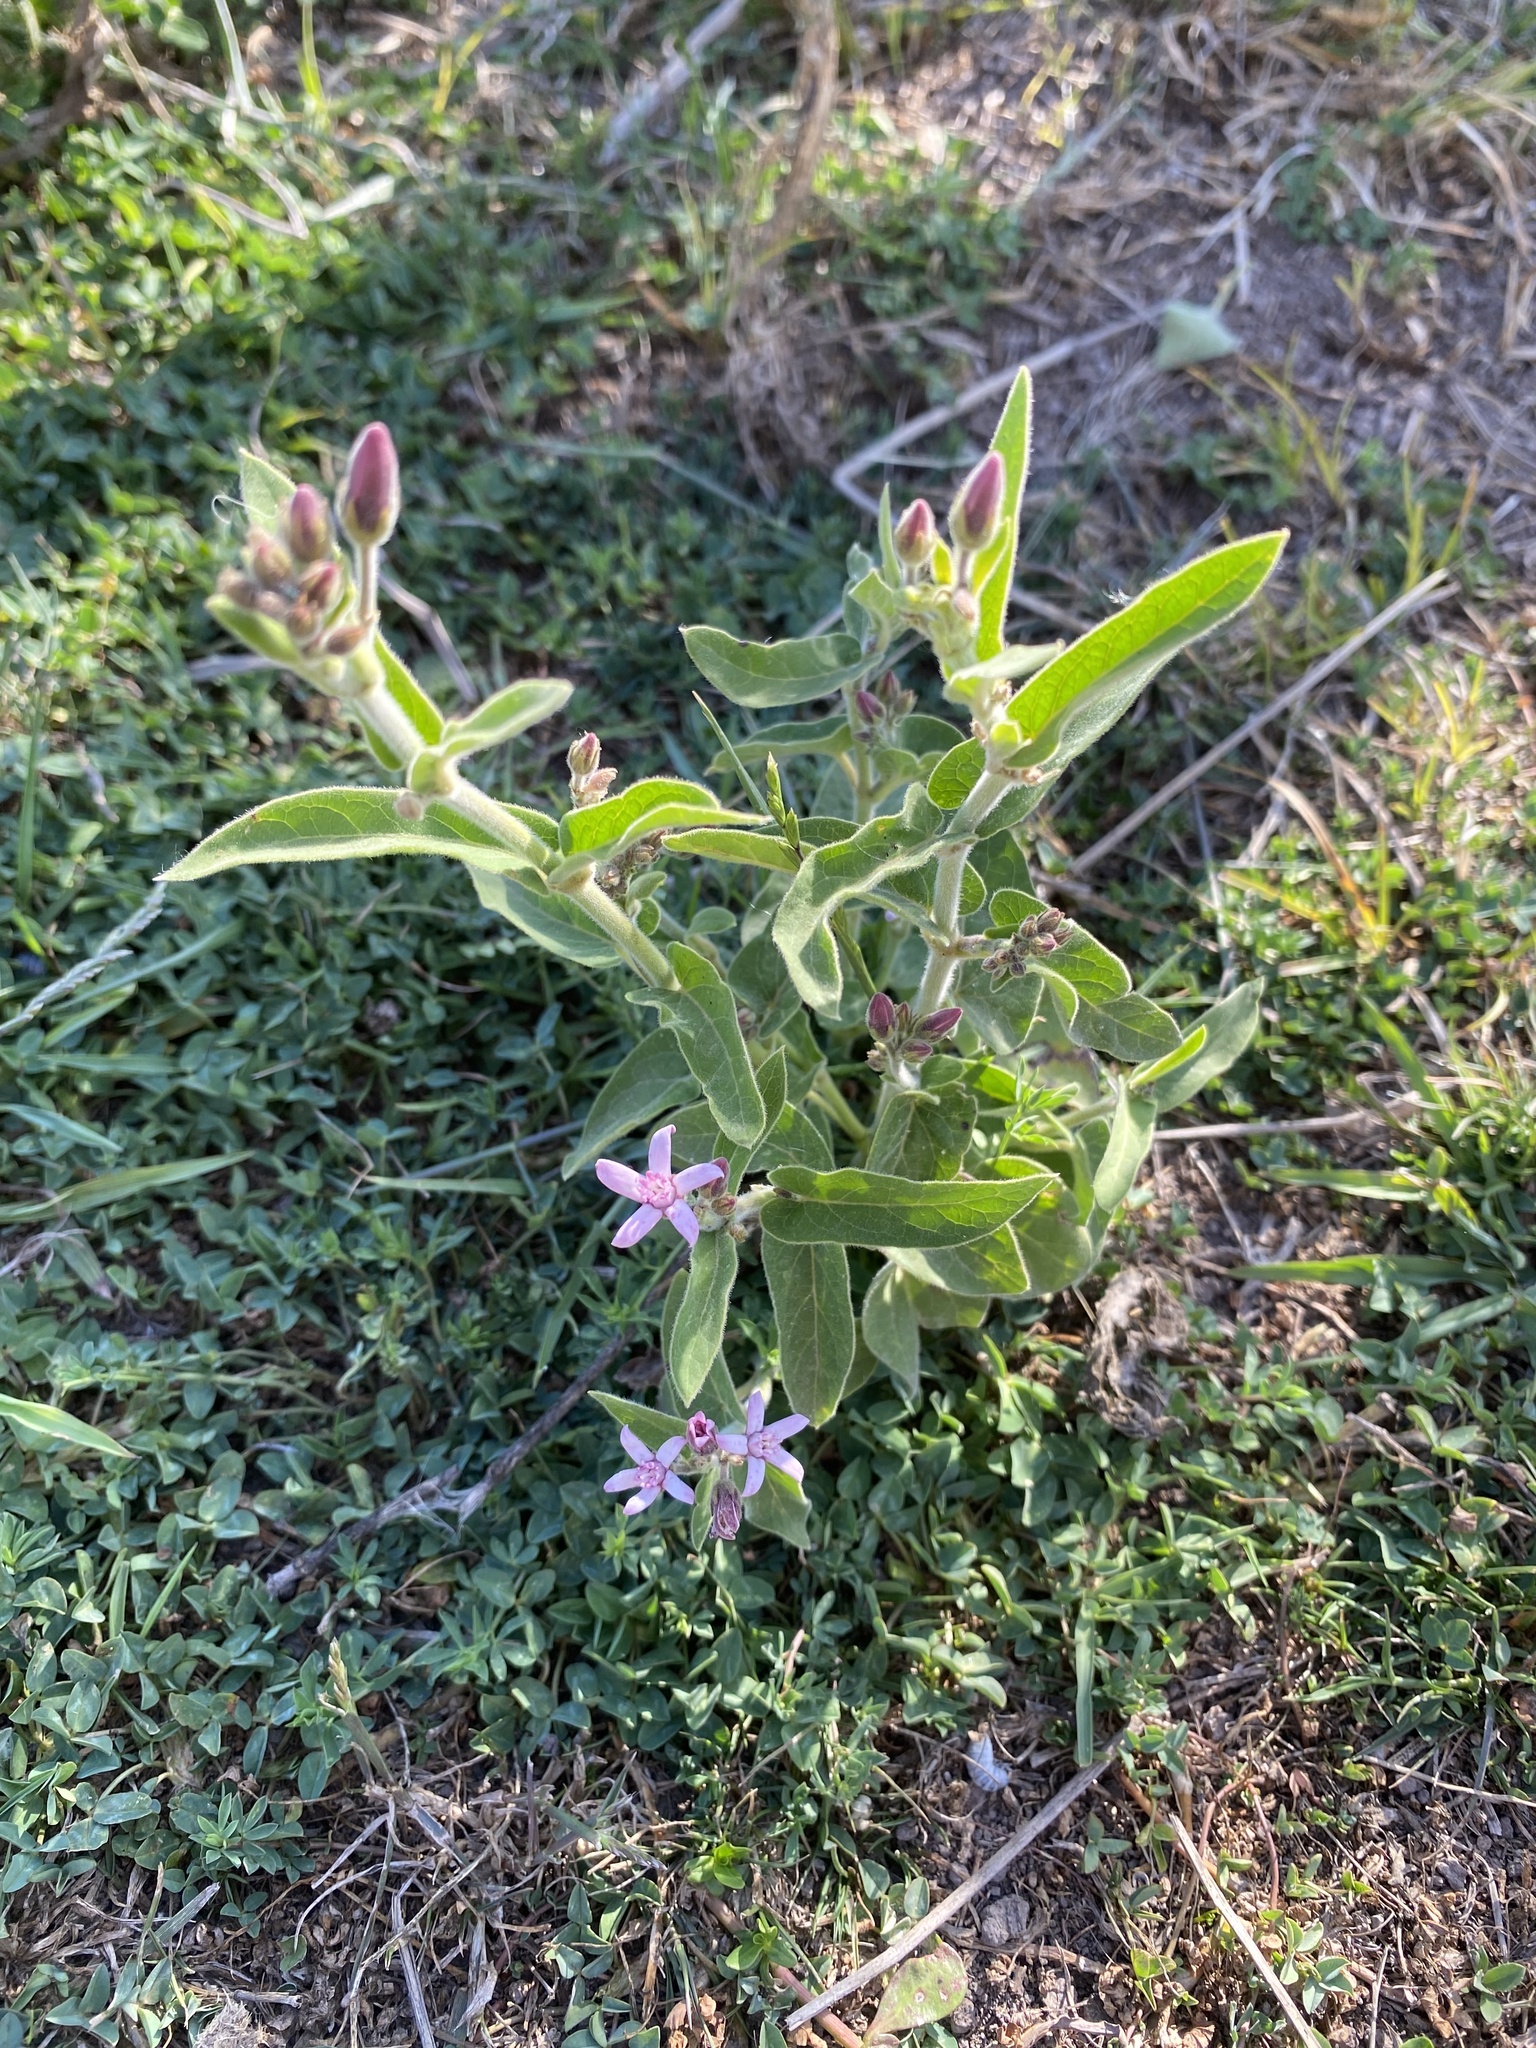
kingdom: Plantae
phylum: Tracheophyta
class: Magnoliopsida
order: Gentianales
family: Apocynaceae
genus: Oxypetalum
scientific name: Oxypetalum solanoides
